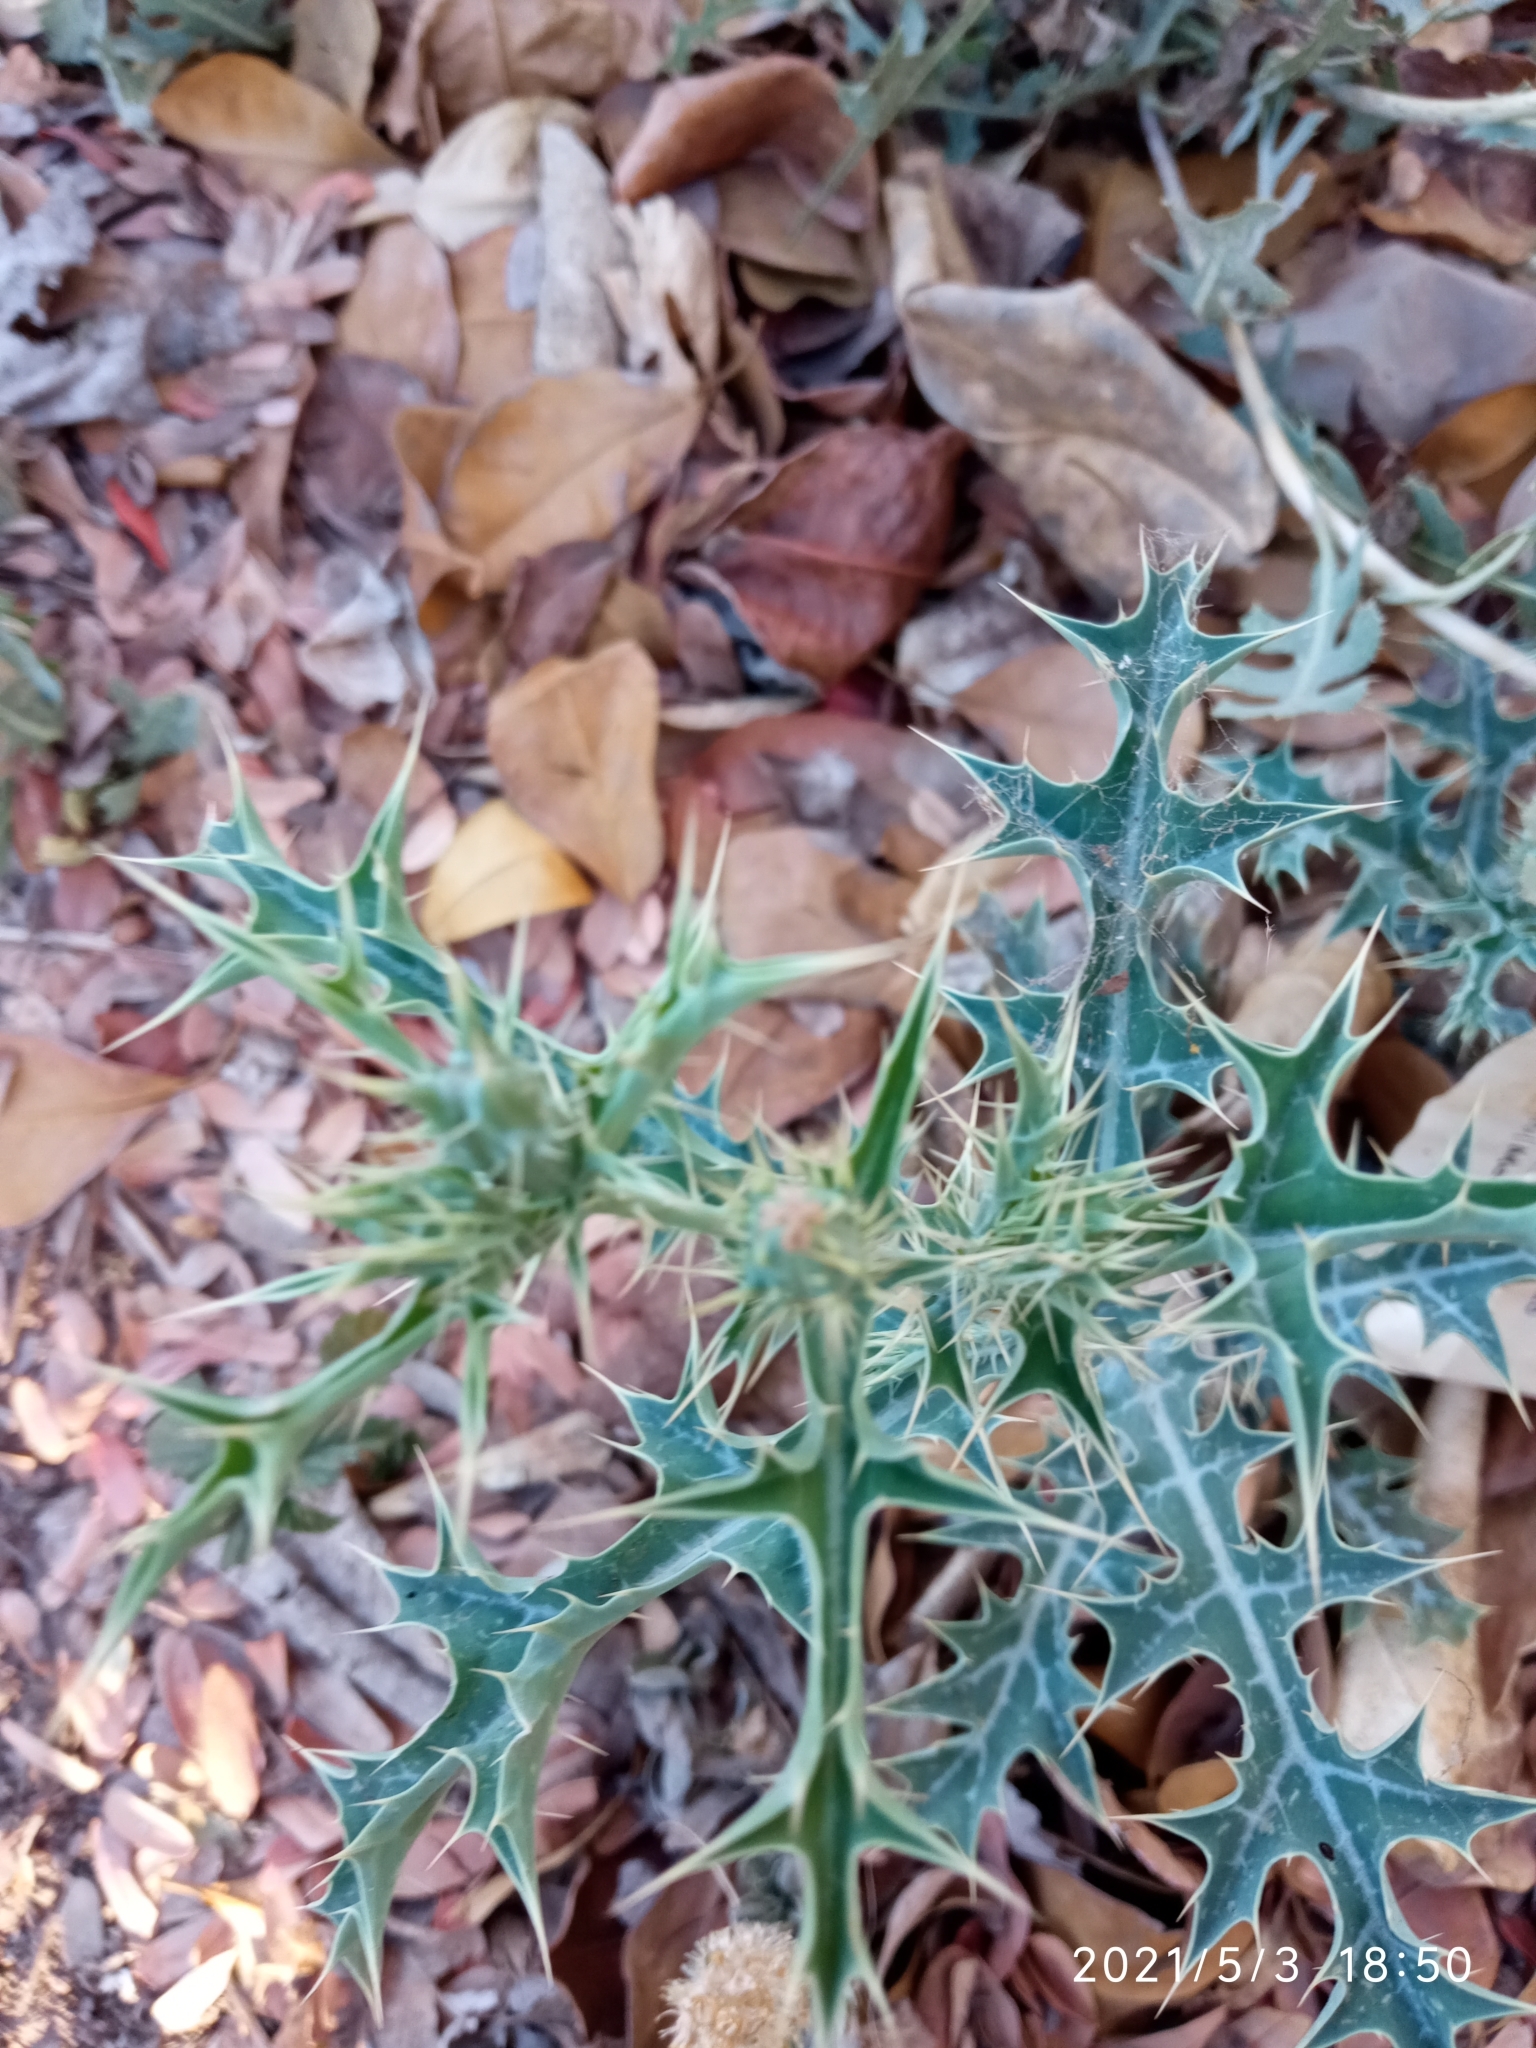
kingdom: Plantae
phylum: Tracheophyta
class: Magnoliopsida
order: Ranunculales
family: Papaveraceae
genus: Argemone
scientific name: Argemone ochroleuca
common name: White-flower mexican-poppy
